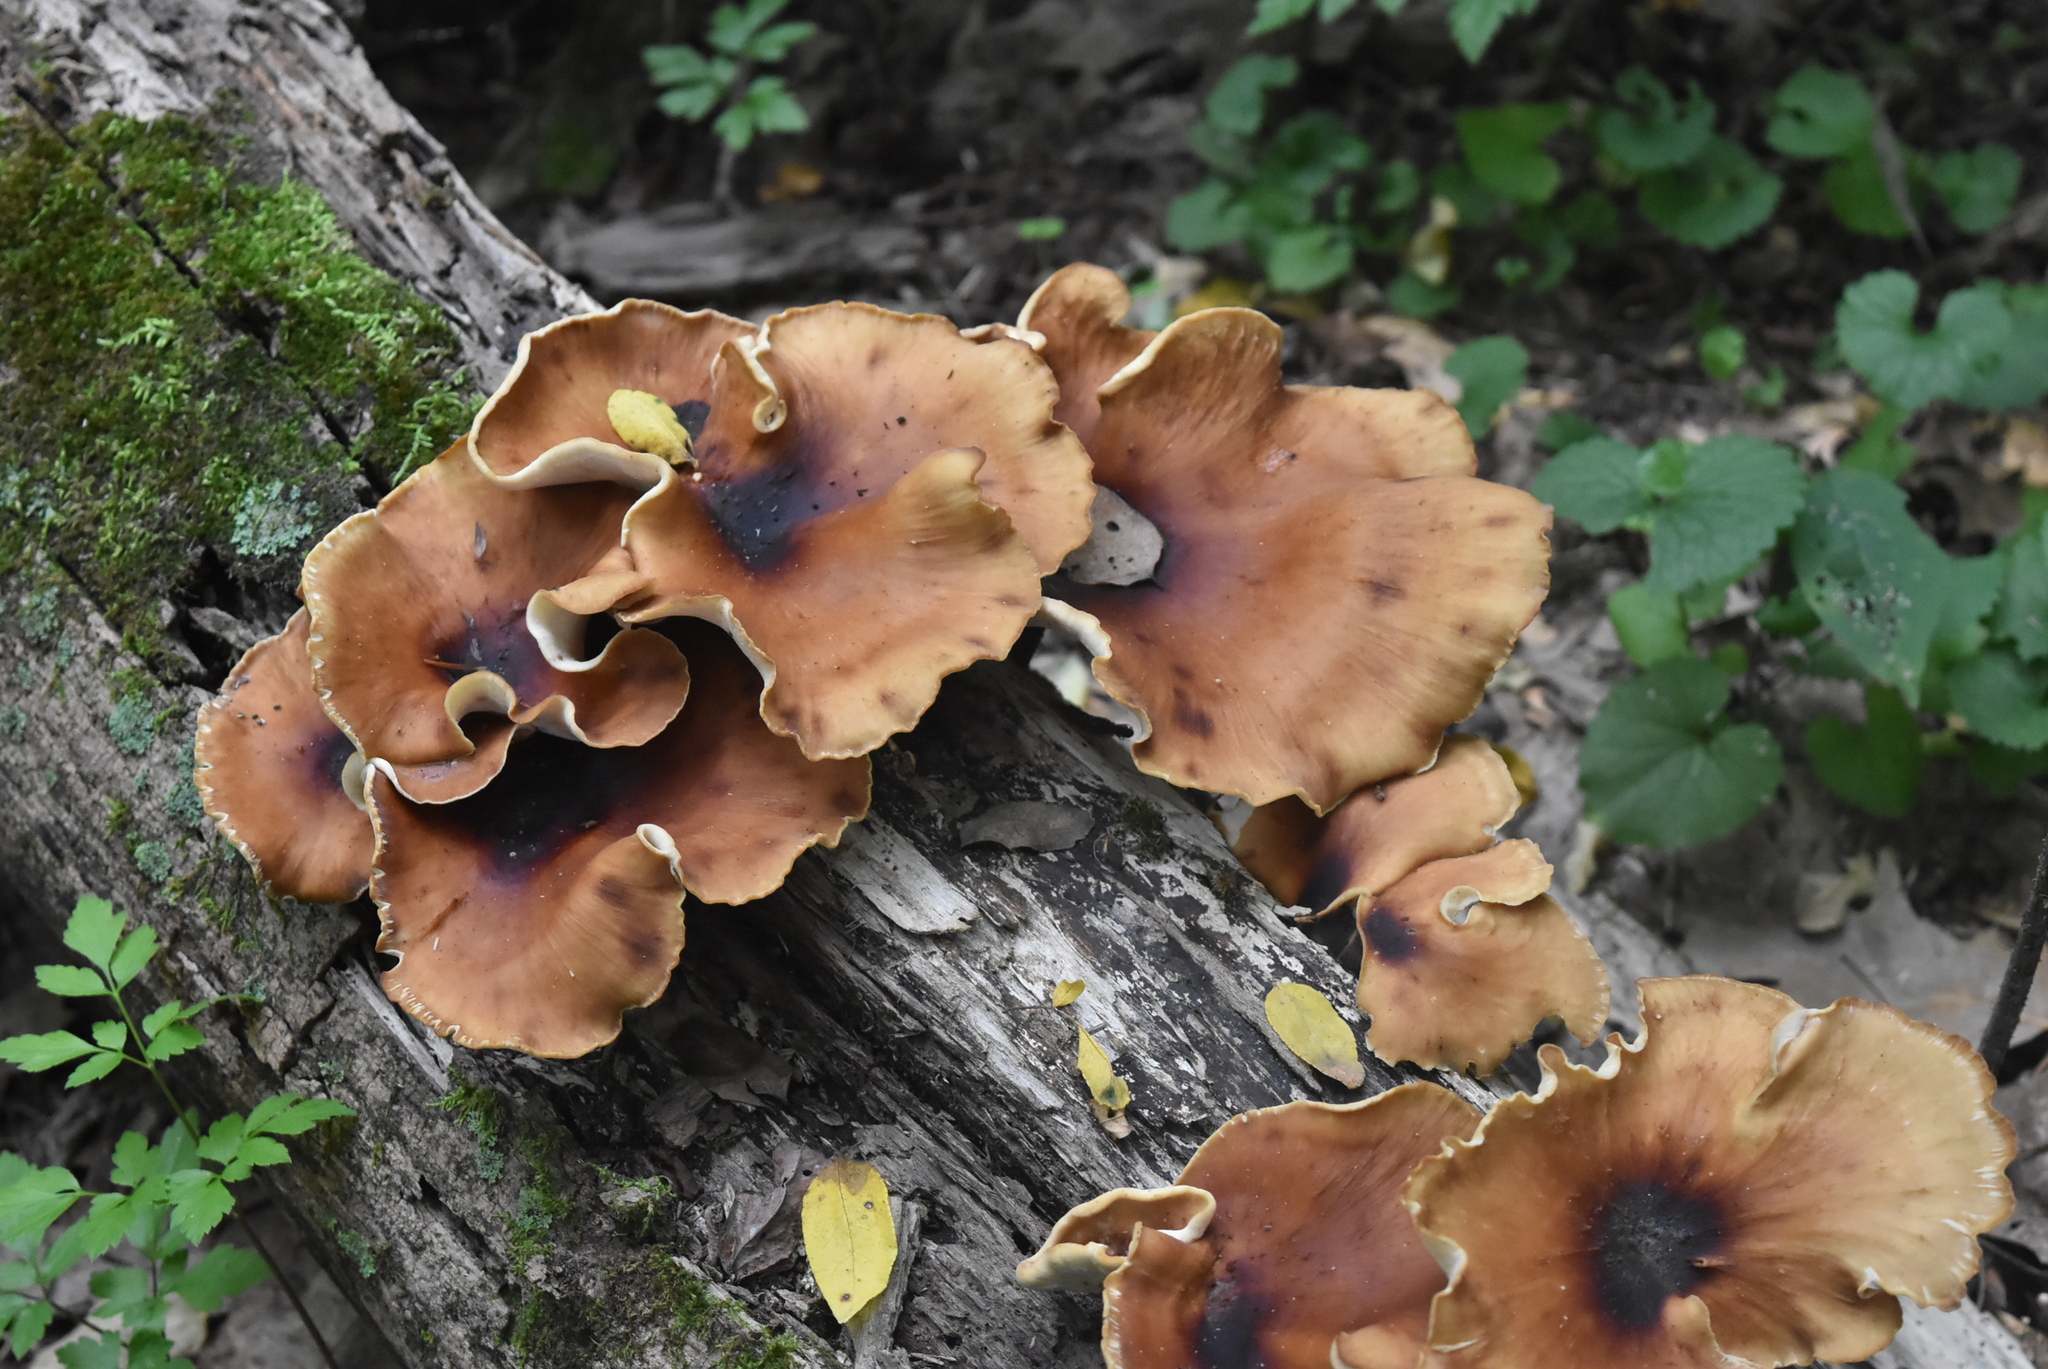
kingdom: Fungi
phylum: Basidiomycota
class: Agaricomycetes
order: Polyporales
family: Polyporaceae
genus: Picipes
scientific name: Picipes badius
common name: Bay polypore
